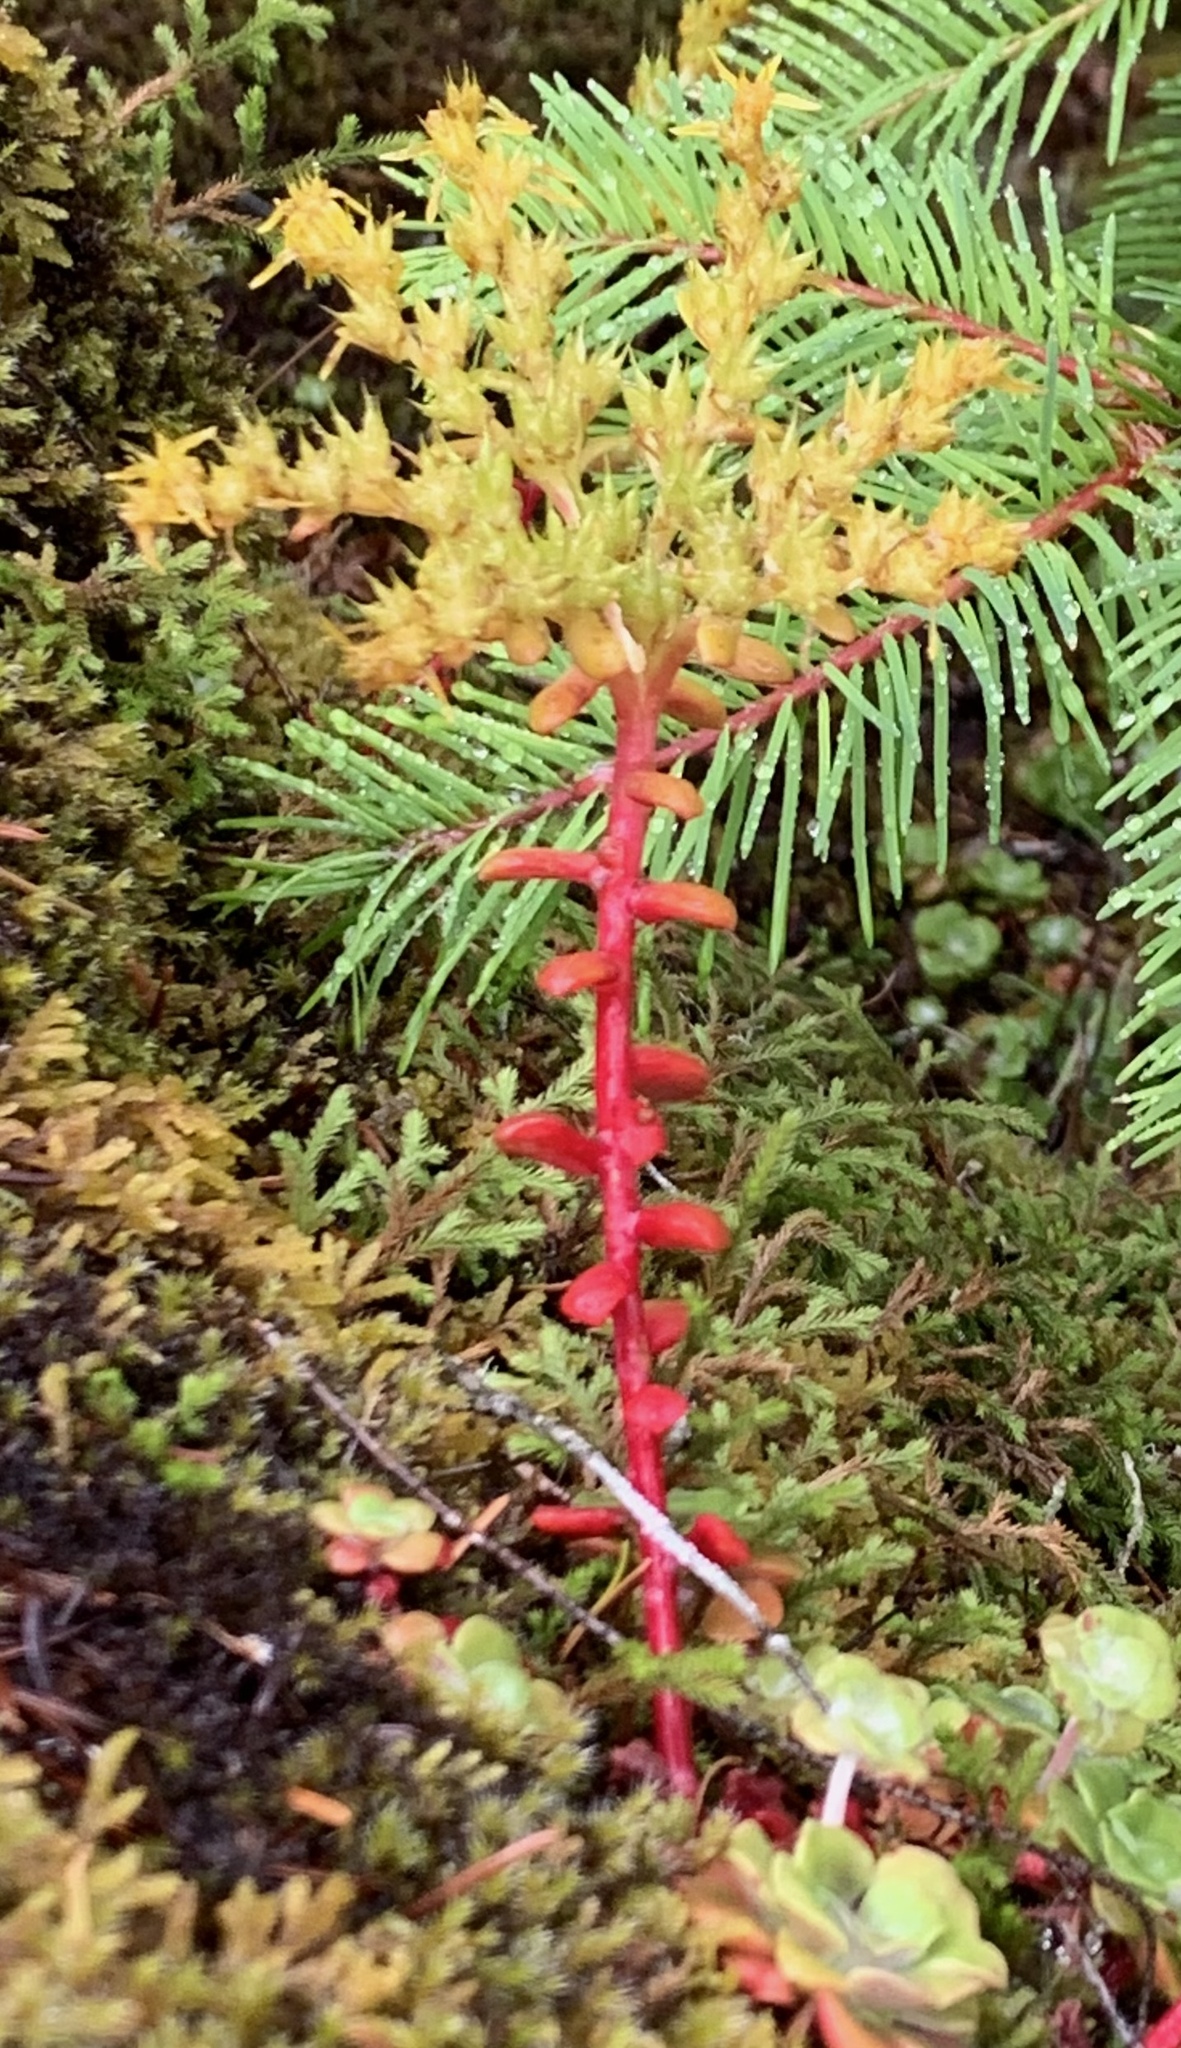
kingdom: Plantae
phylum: Tracheophyta
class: Magnoliopsida
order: Saxifragales
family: Crassulaceae
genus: Sedum
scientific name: Sedum spathulifolium
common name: Colorado stonecrop
